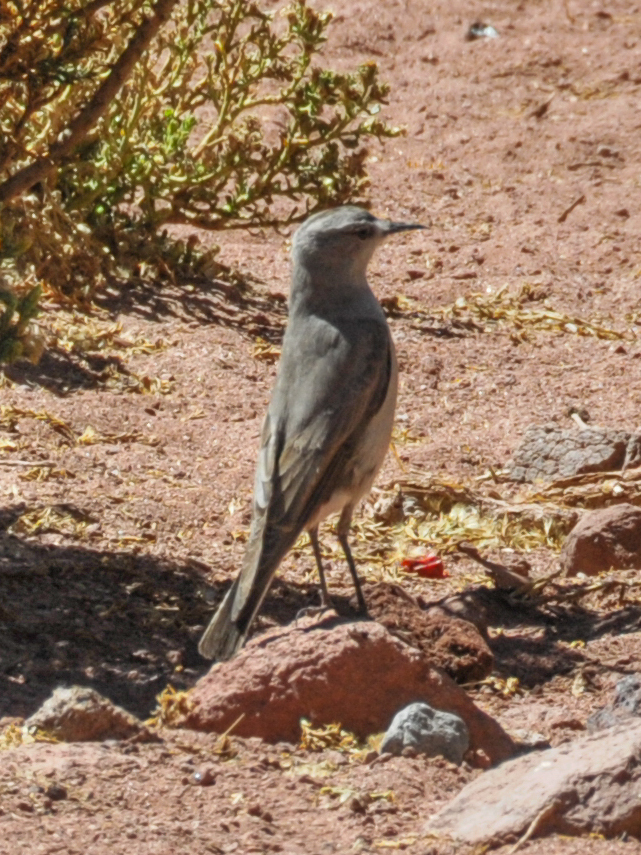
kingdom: Animalia
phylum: Chordata
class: Aves
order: Passeriformes
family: Tyrannidae
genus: Muscisaxicola
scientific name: Muscisaxicola frontalis
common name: Black-fronted ground tyrant
